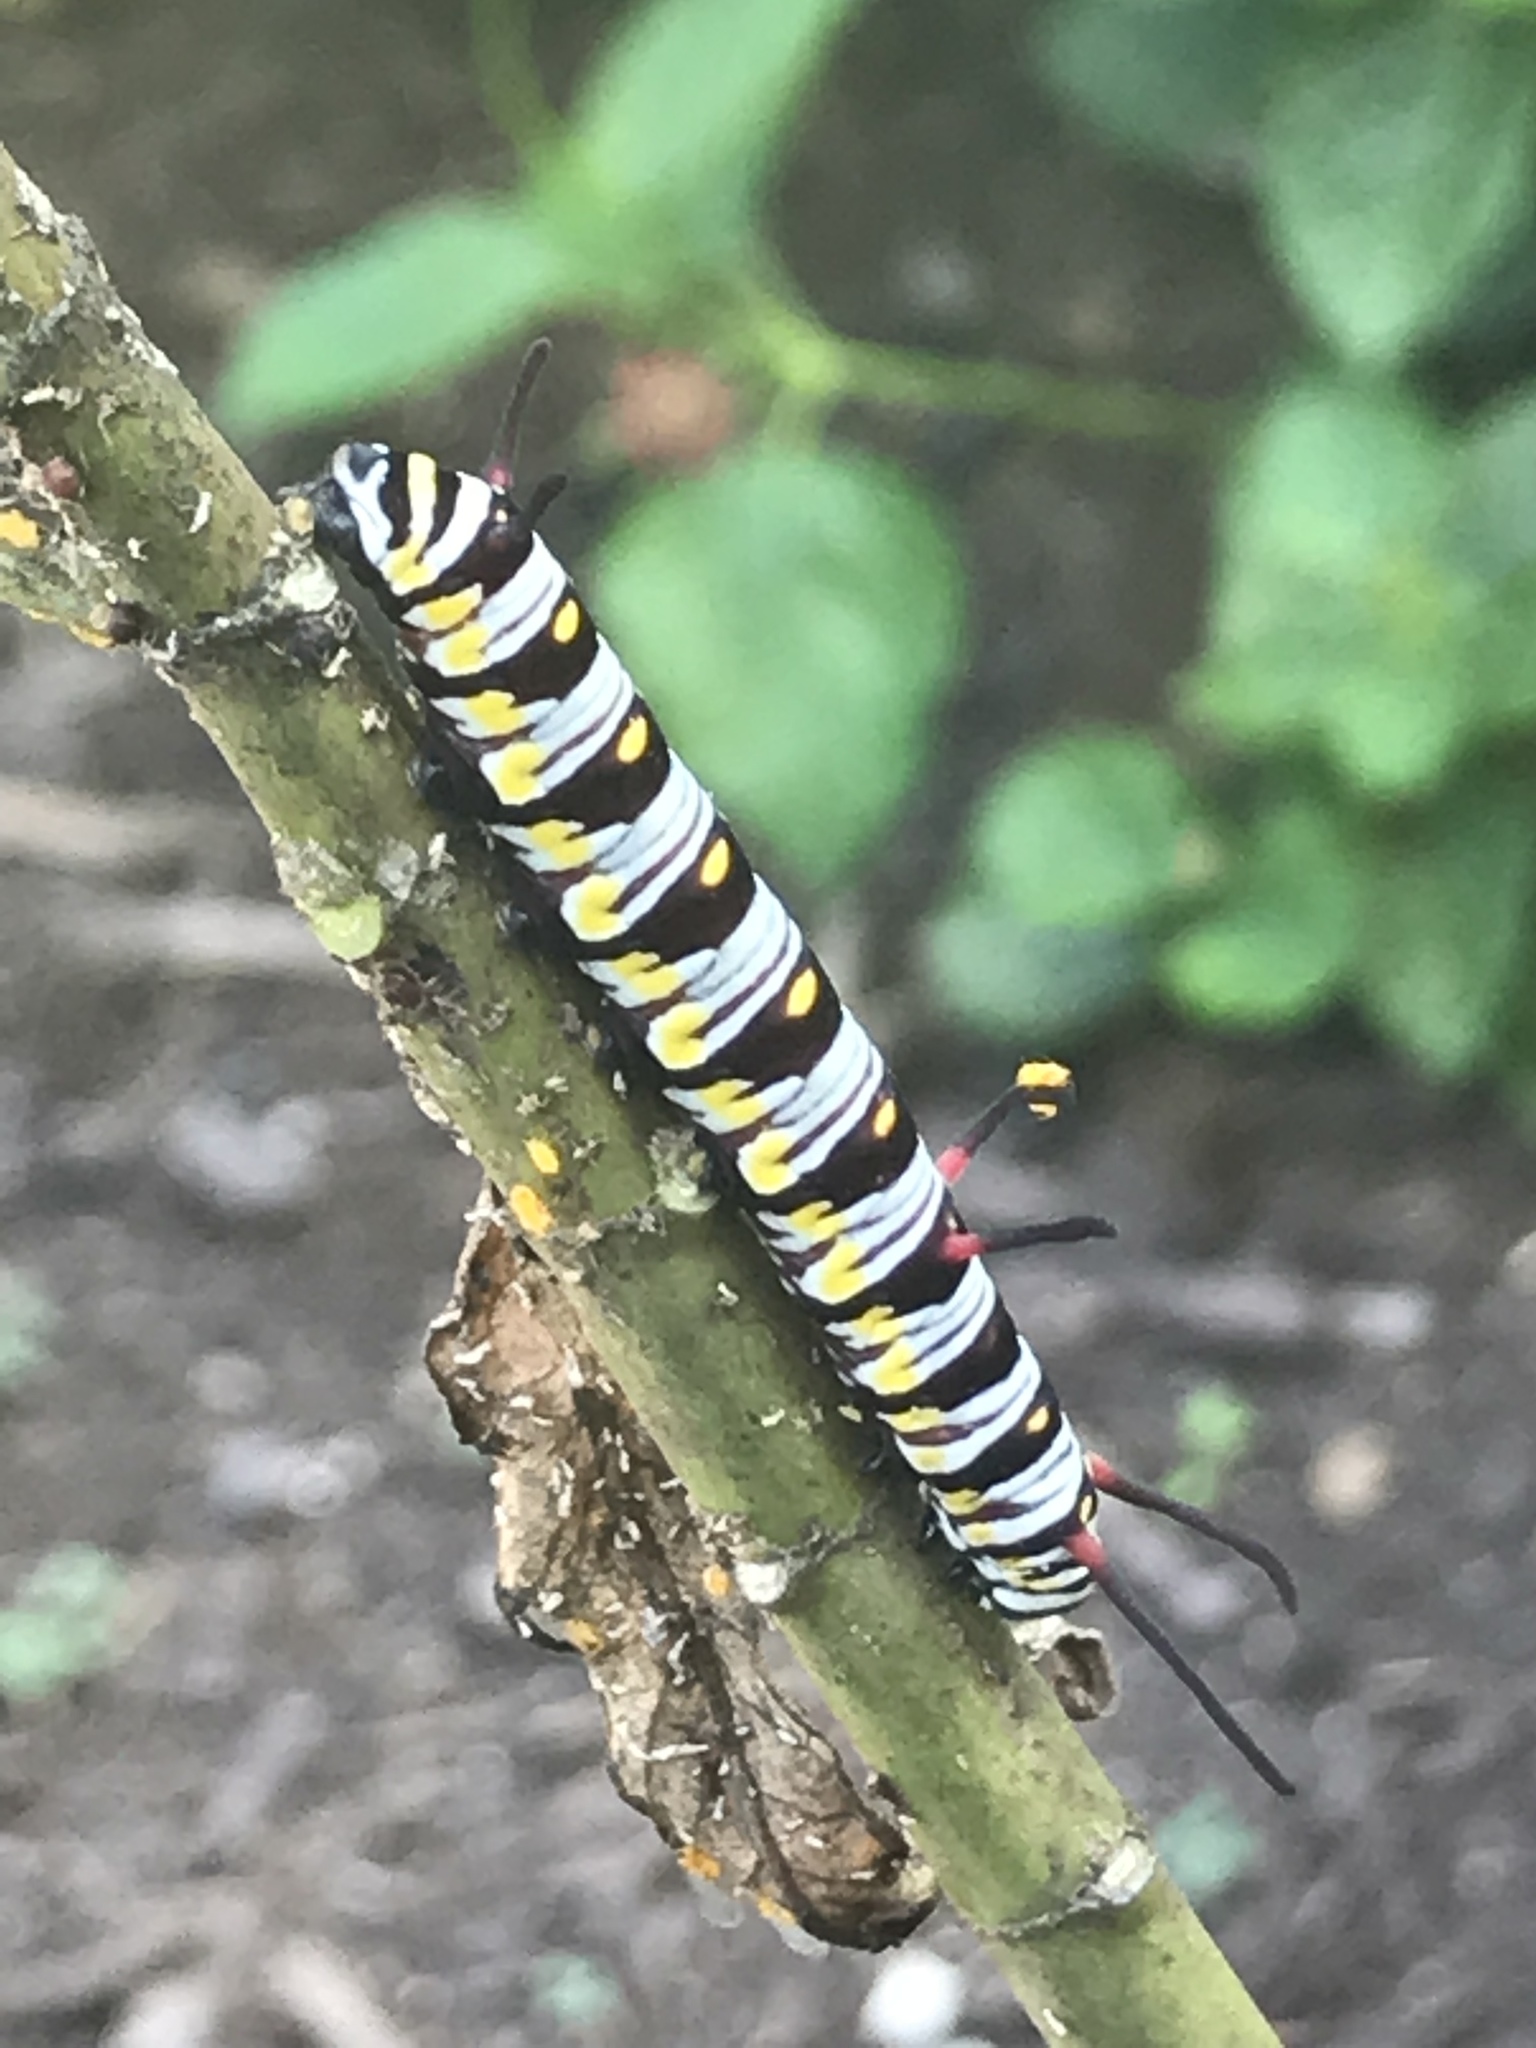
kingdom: Animalia
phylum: Arthropoda
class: Insecta
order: Lepidoptera
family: Nymphalidae
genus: Danaus
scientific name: Danaus gilippus
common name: Queen
